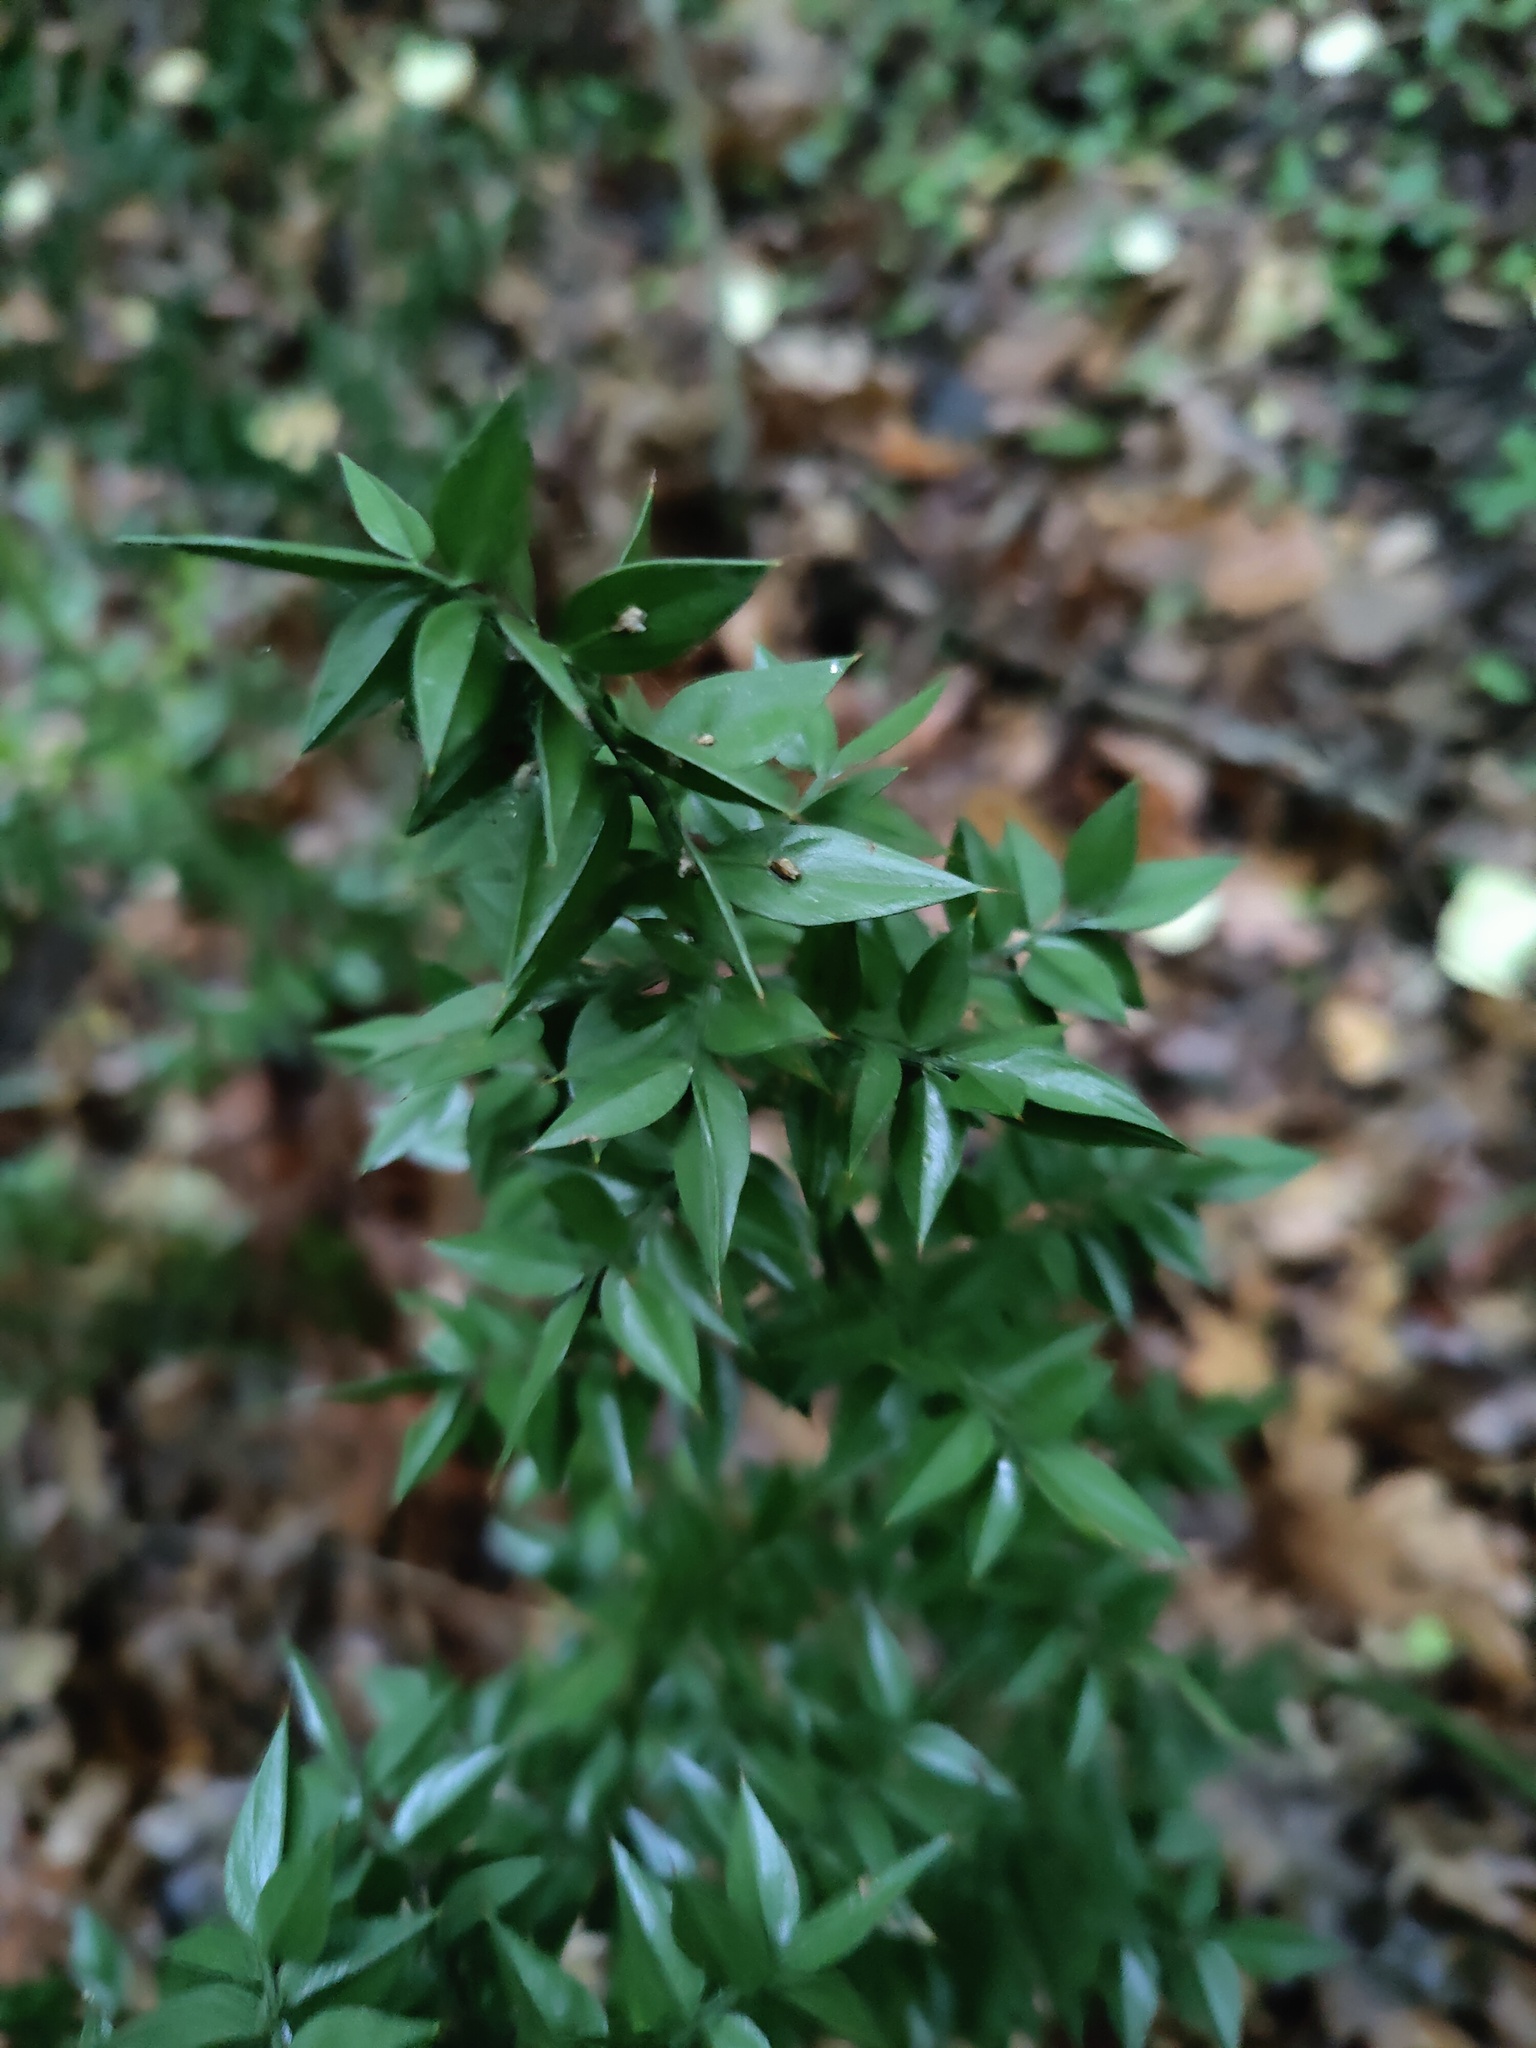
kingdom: Plantae
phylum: Tracheophyta
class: Liliopsida
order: Asparagales
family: Asparagaceae
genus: Ruscus
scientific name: Ruscus aculeatus
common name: Butcher's-broom
